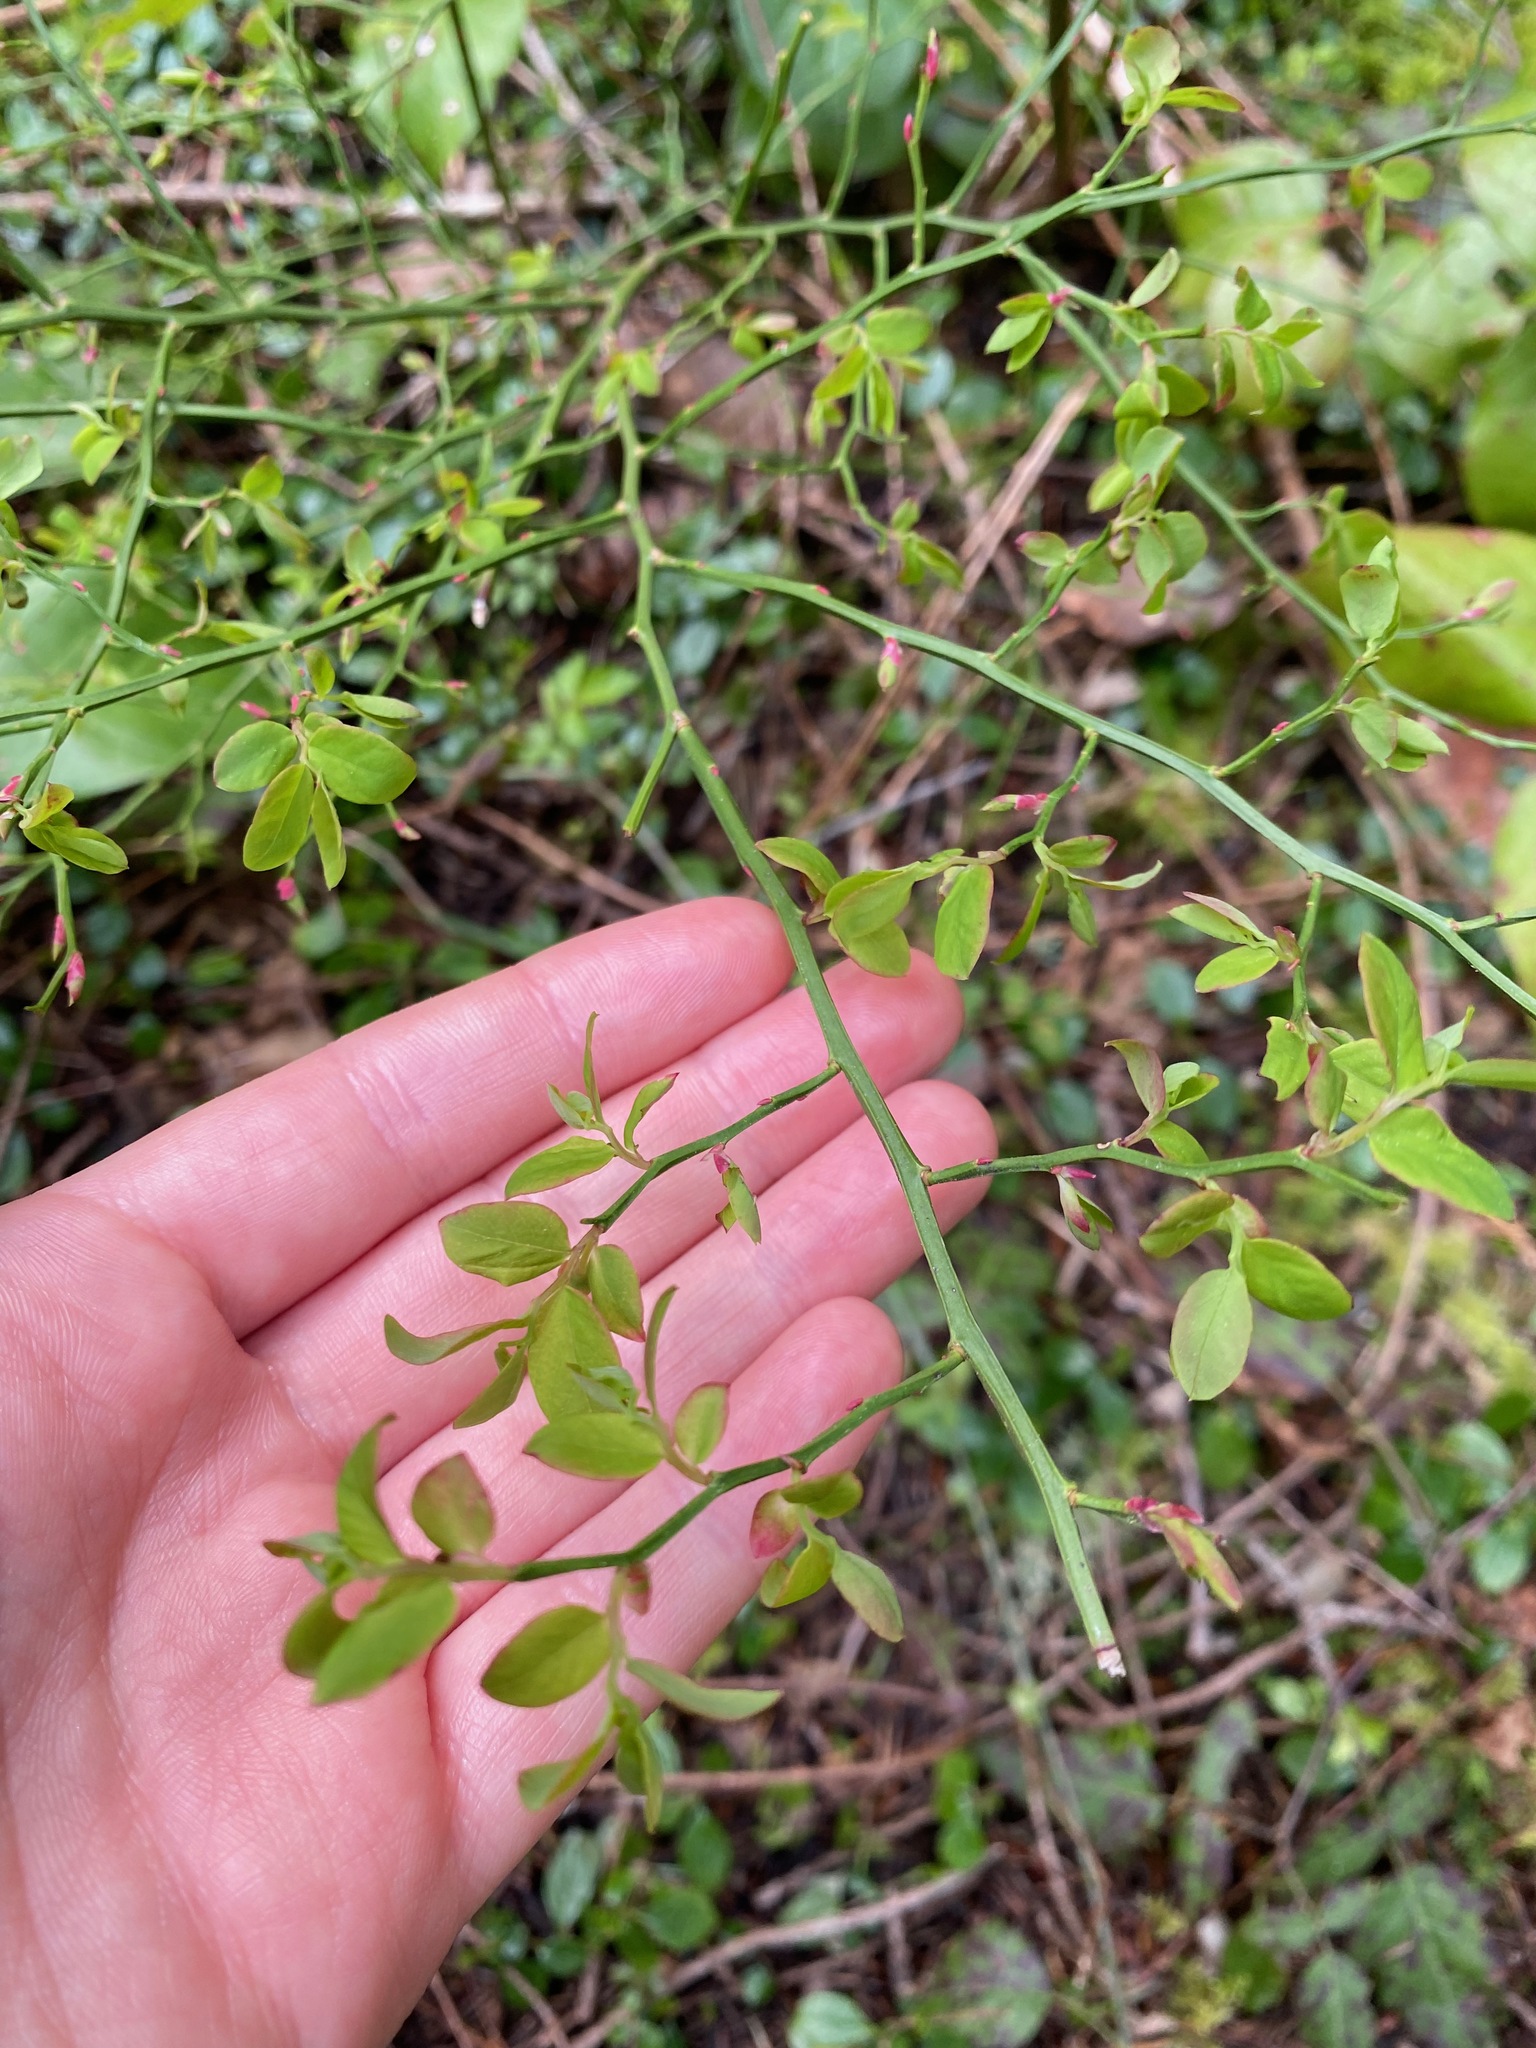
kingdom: Plantae
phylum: Tracheophyta
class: Magnoliopsida
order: Ericales
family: Ericaceae
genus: Vaccinium
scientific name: Vaccinium parvifolium
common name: Red-huckleberry
